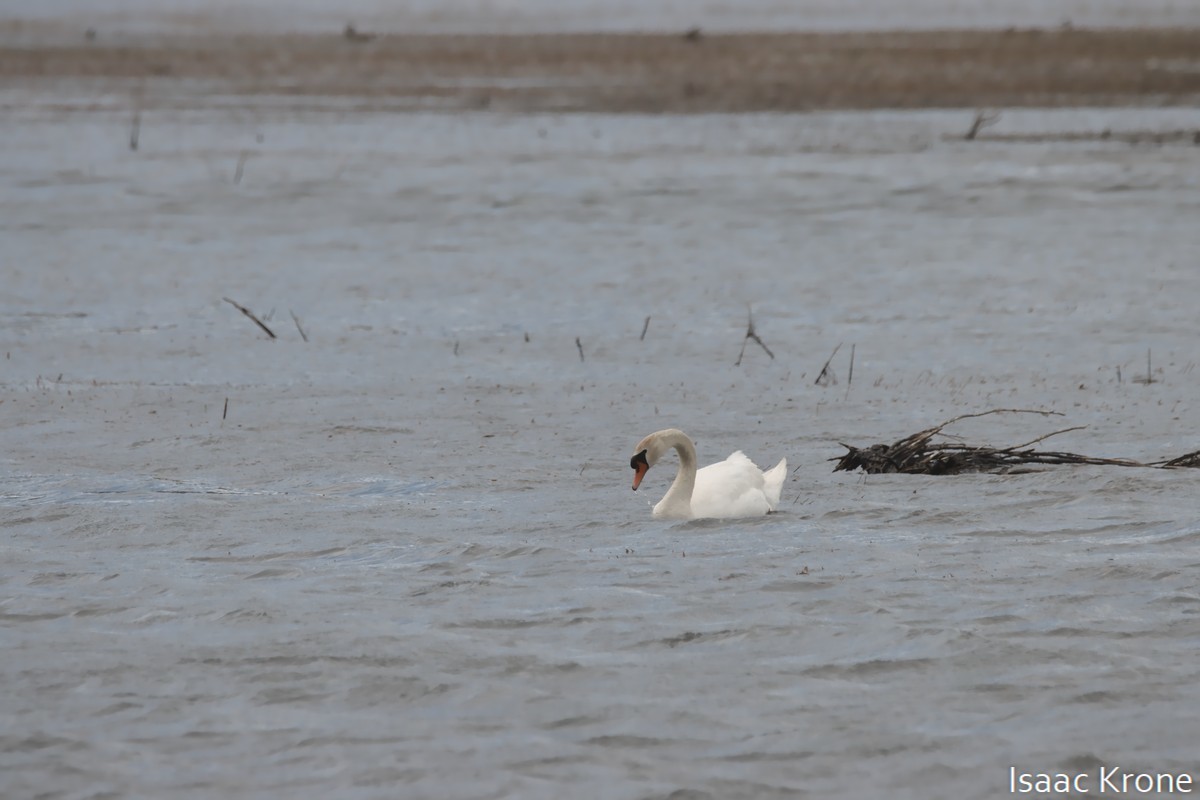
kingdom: Animalia
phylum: Chordata
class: Aves
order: Anseriformes
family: Anatidae
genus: Cygnus
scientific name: Cygnus olor
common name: Mute swan
